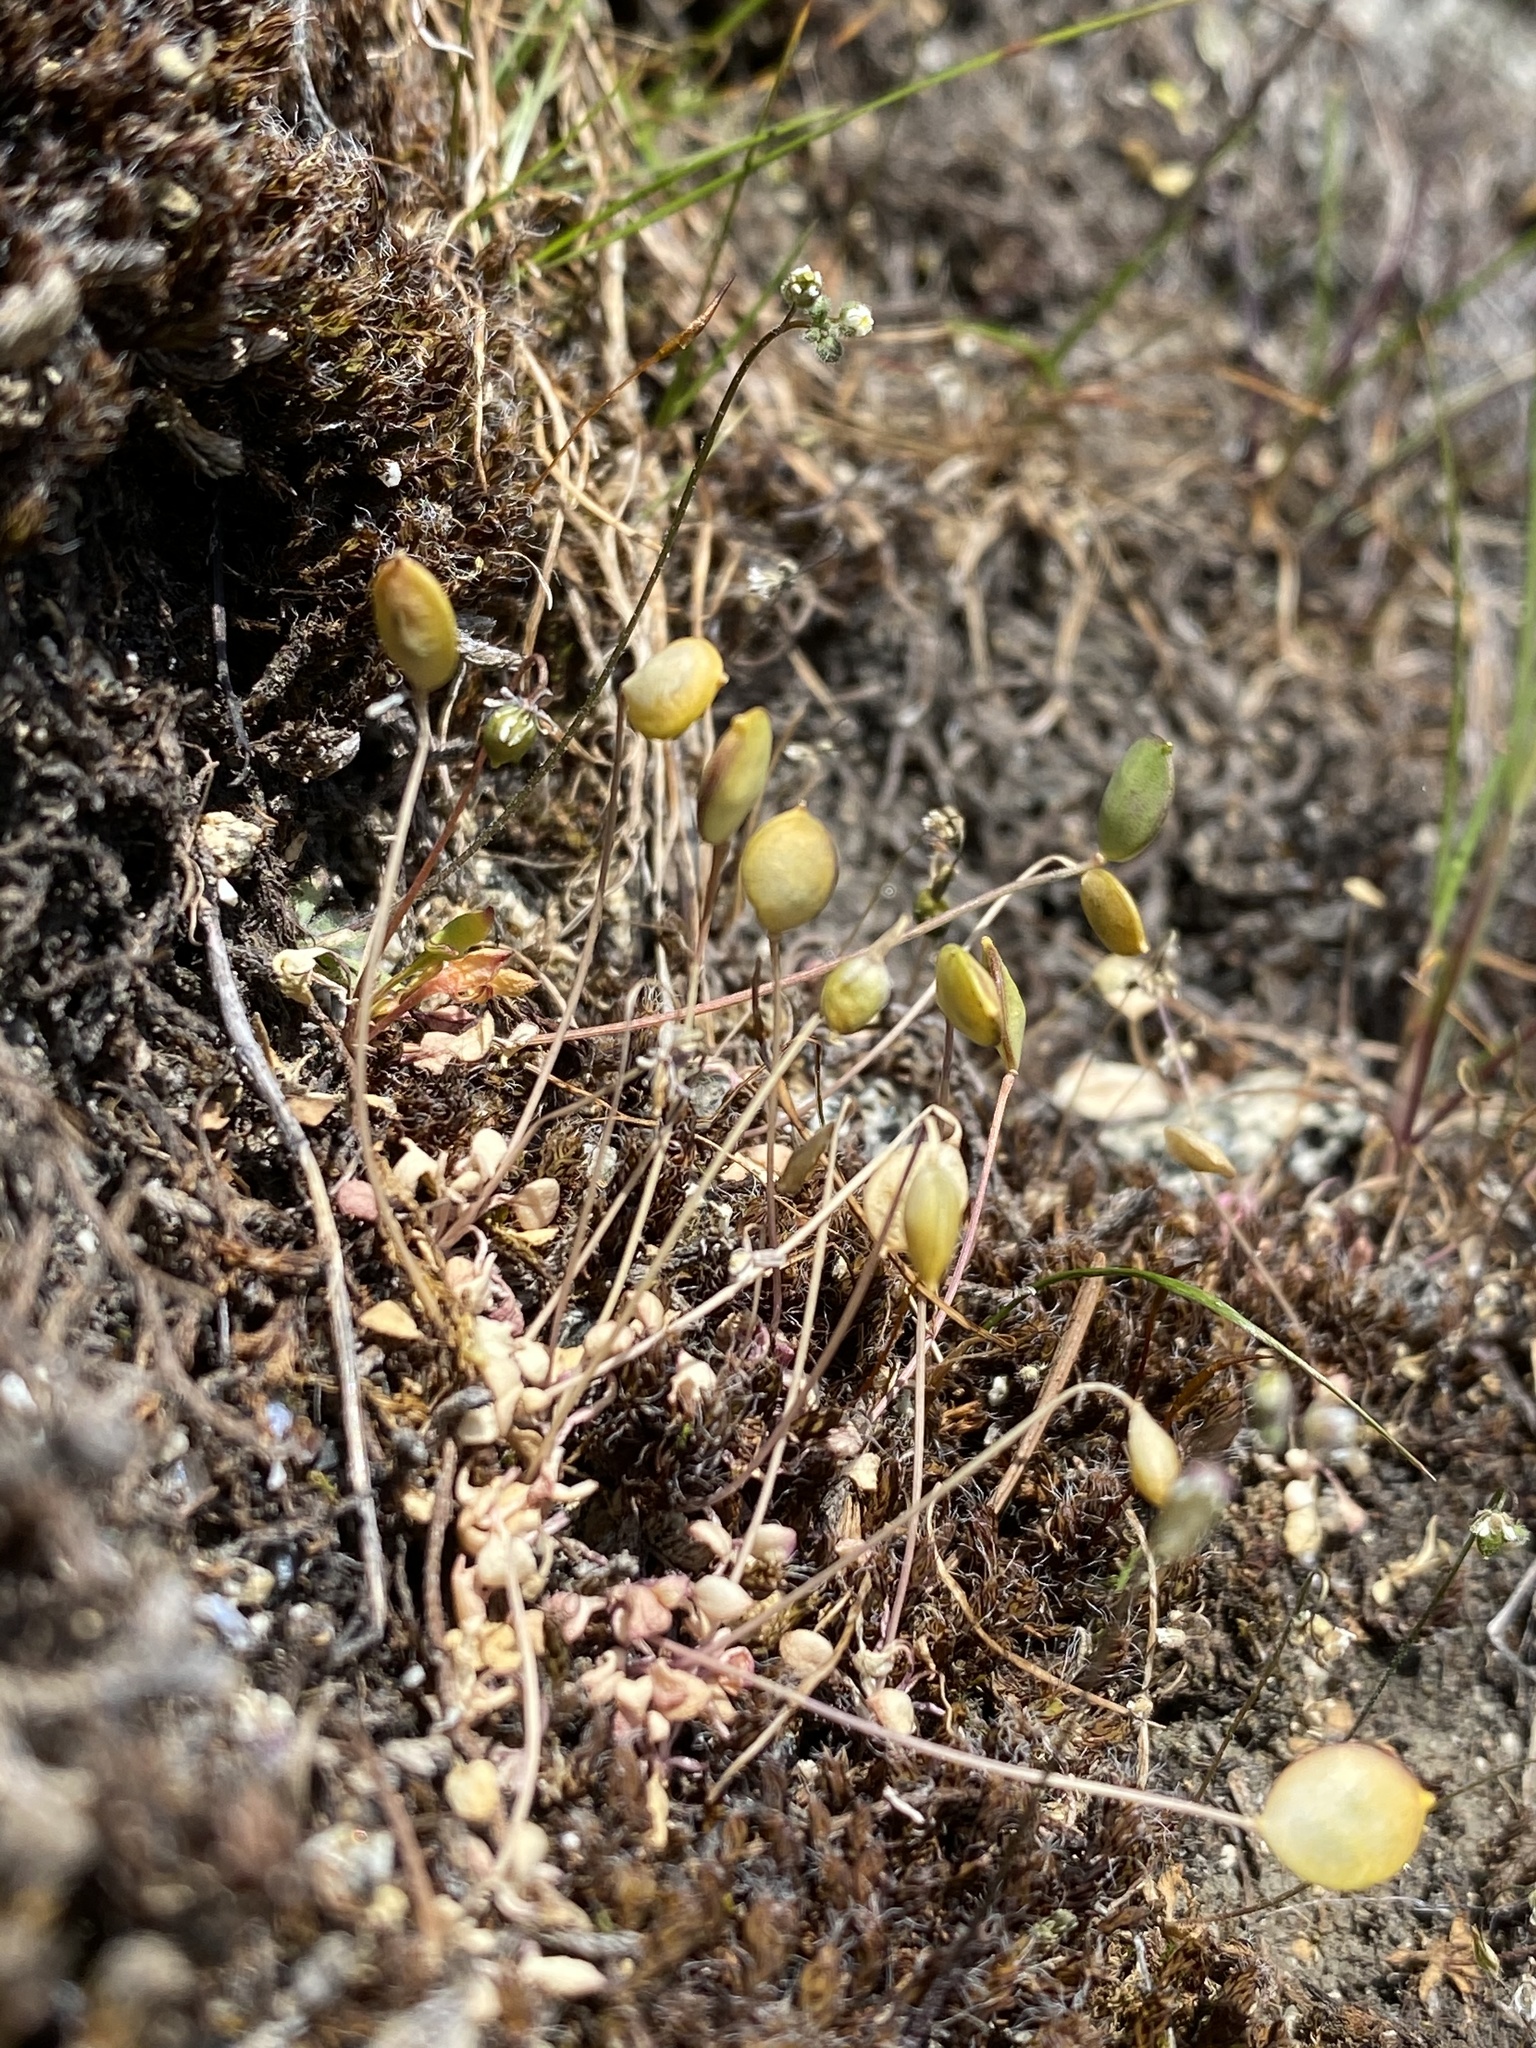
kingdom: Plantae
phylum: Tracheophyta
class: Magnoliopsida
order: Brassicales
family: Brassicaceae
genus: Idahoa
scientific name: Idahoa scapigera
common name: Scalepod
